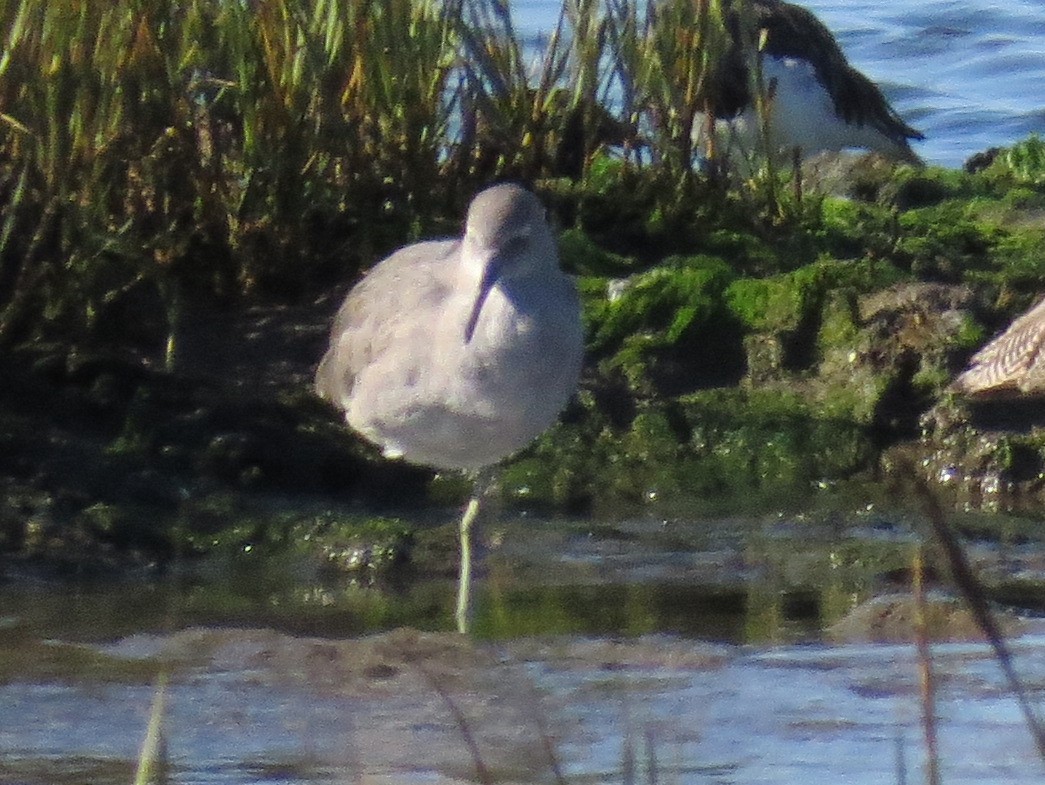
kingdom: Animalia
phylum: Chordata
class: Aves
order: Charadriiformes
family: Scolopacidae
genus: Tringa
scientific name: Tringa semipalmata
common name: Willet
